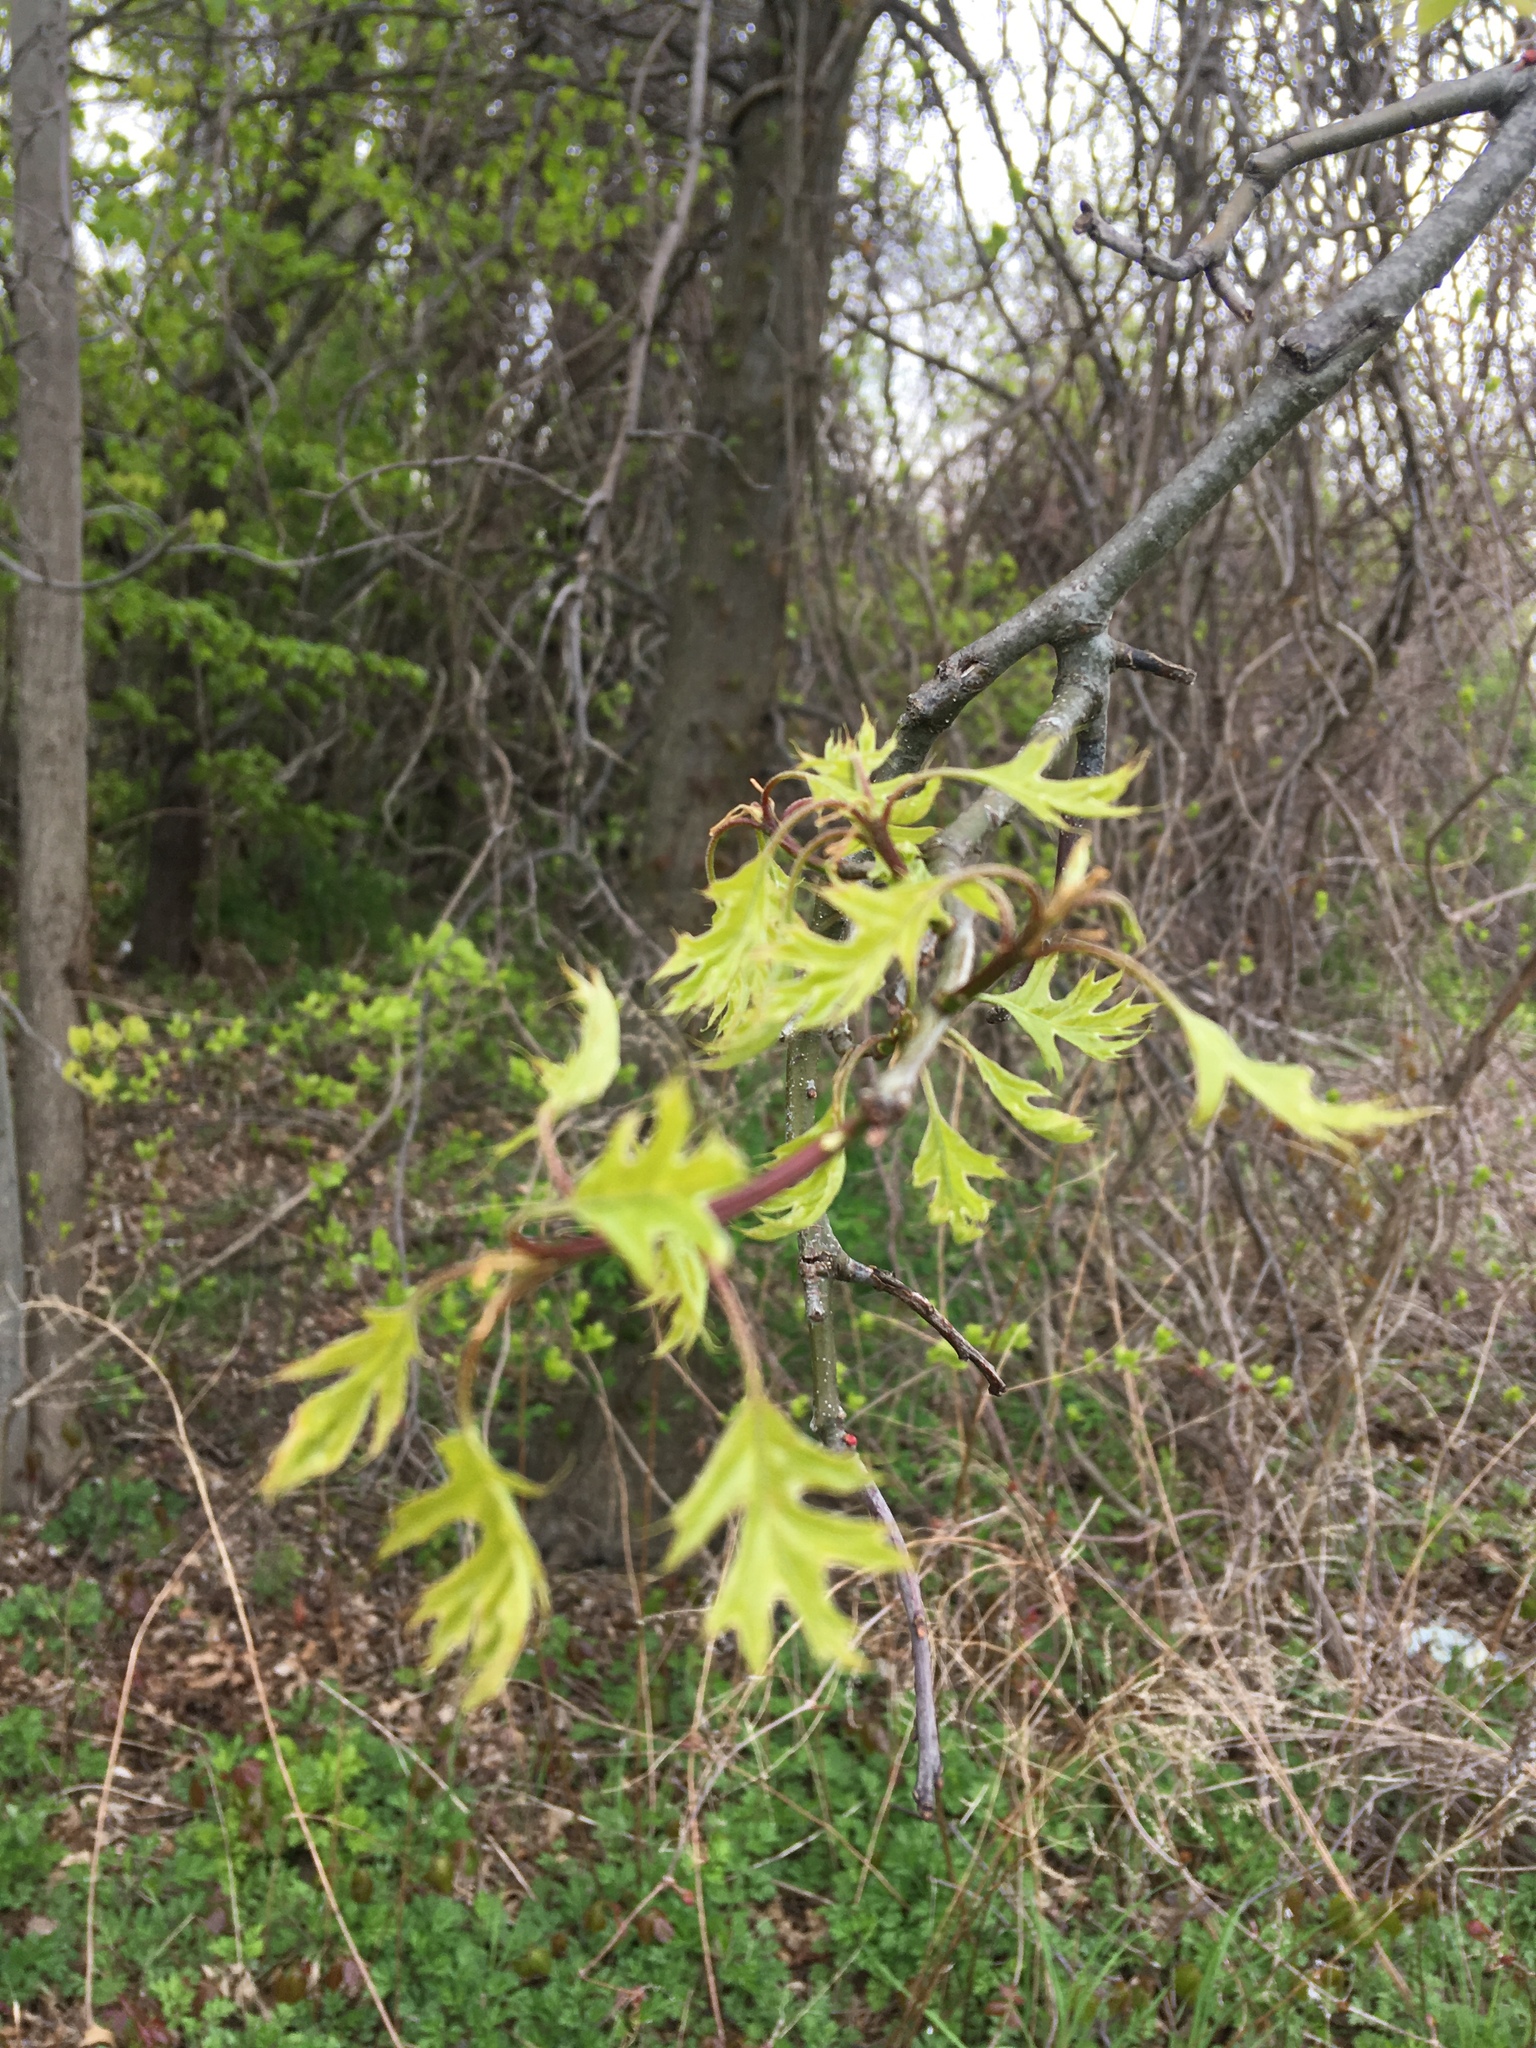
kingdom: Plantae
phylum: Tracheophyta
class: Magnoliopsida
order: Fagales
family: Fagaceae
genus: Quercus
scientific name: Quercus palustris
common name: Pin oak
